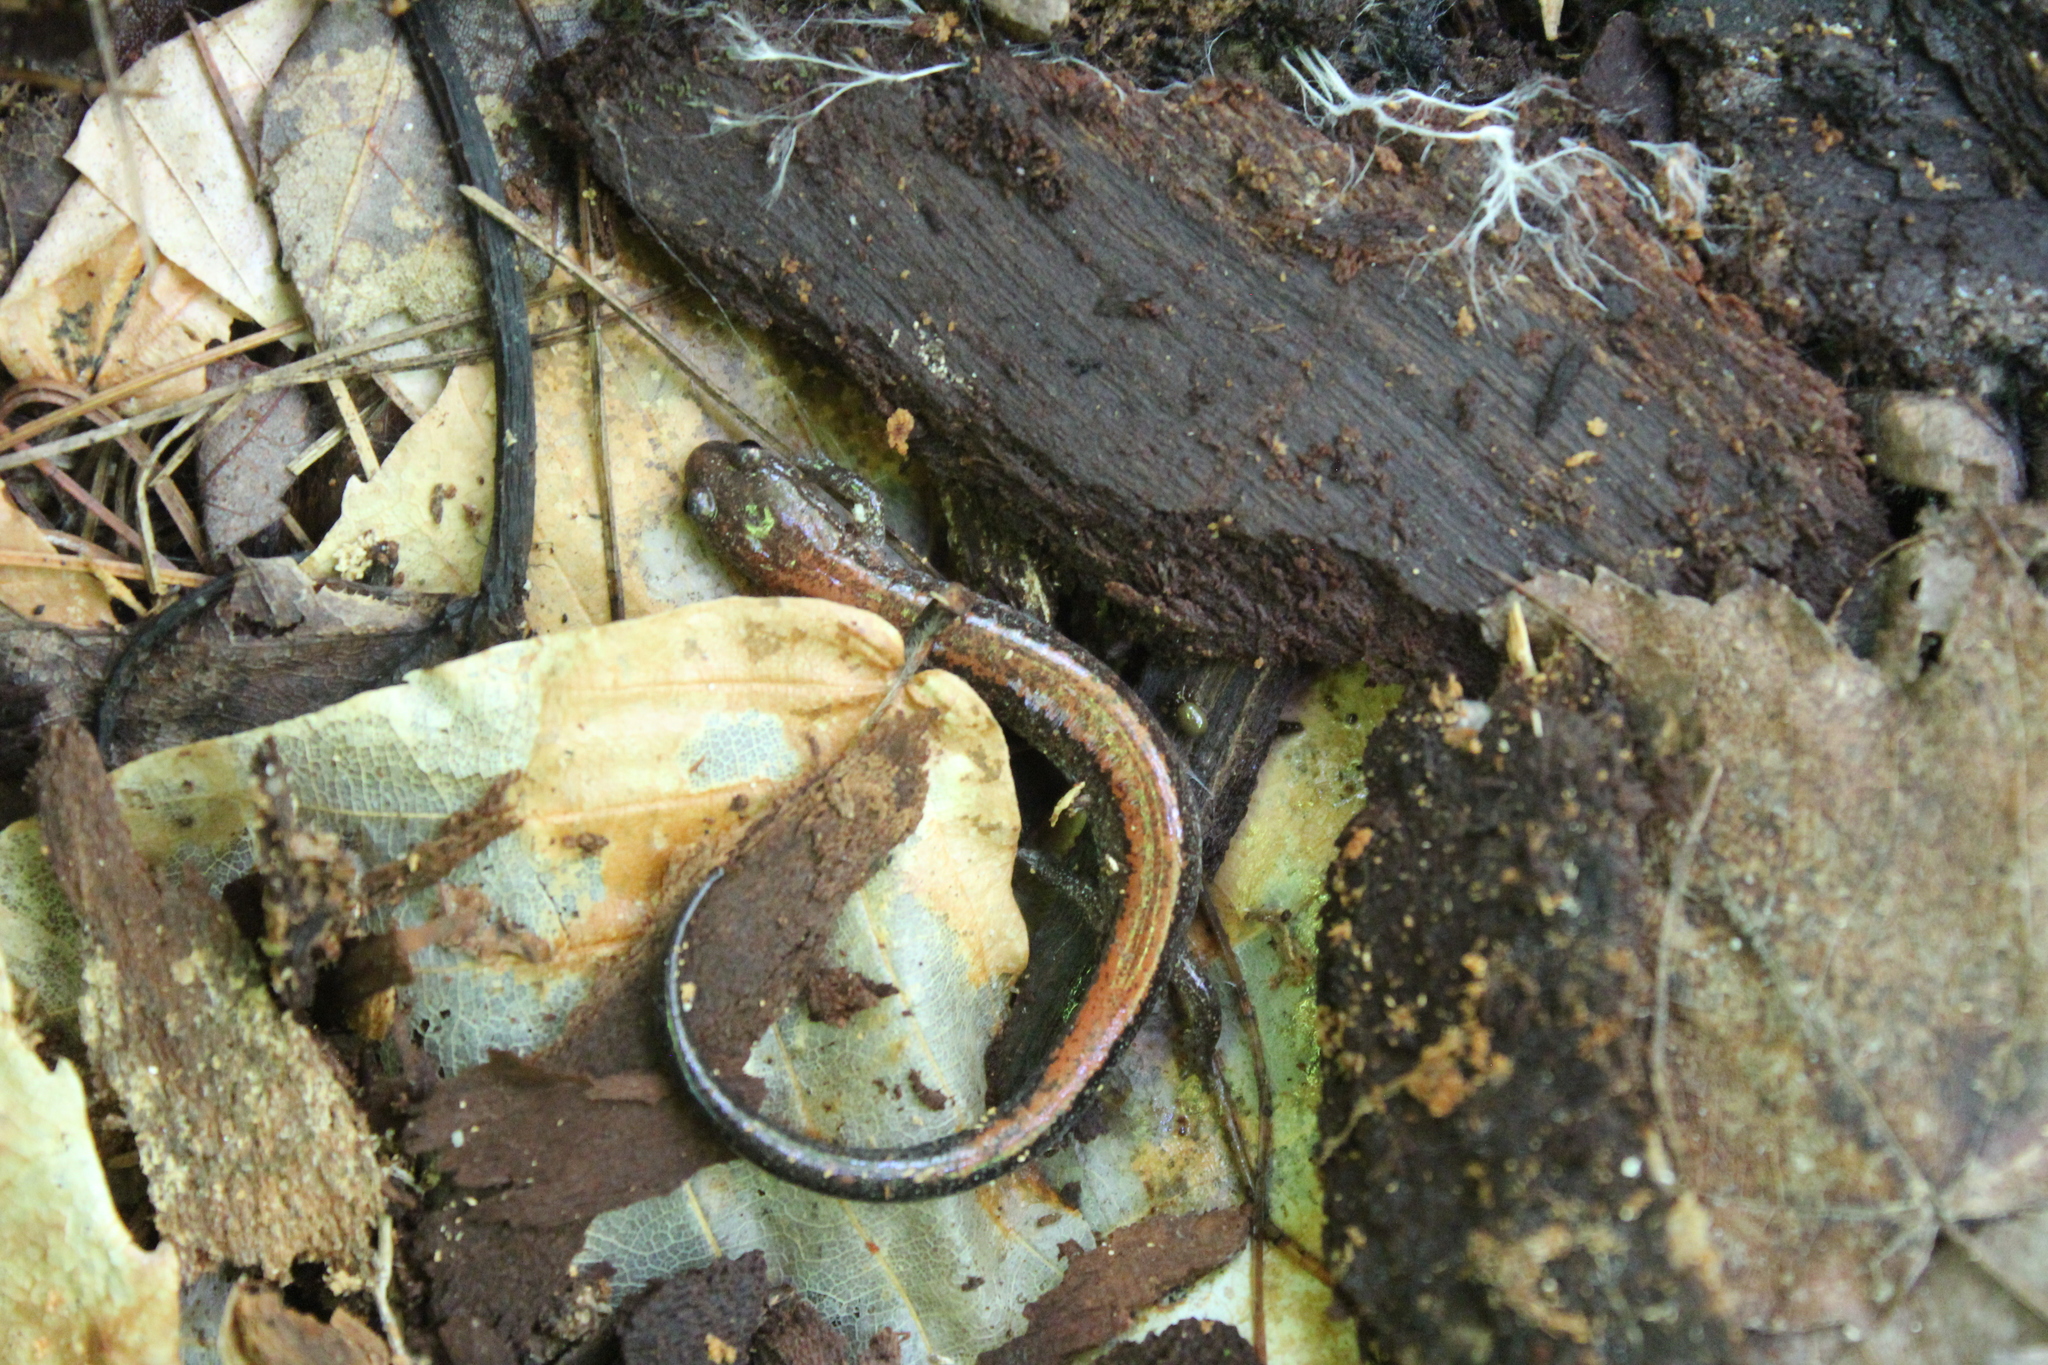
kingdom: Animalia
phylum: Chordata
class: Amphibia
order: Caudata
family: Plethodontidae
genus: Plethodon
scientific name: Plethodon cinereus
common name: Redback salamander
